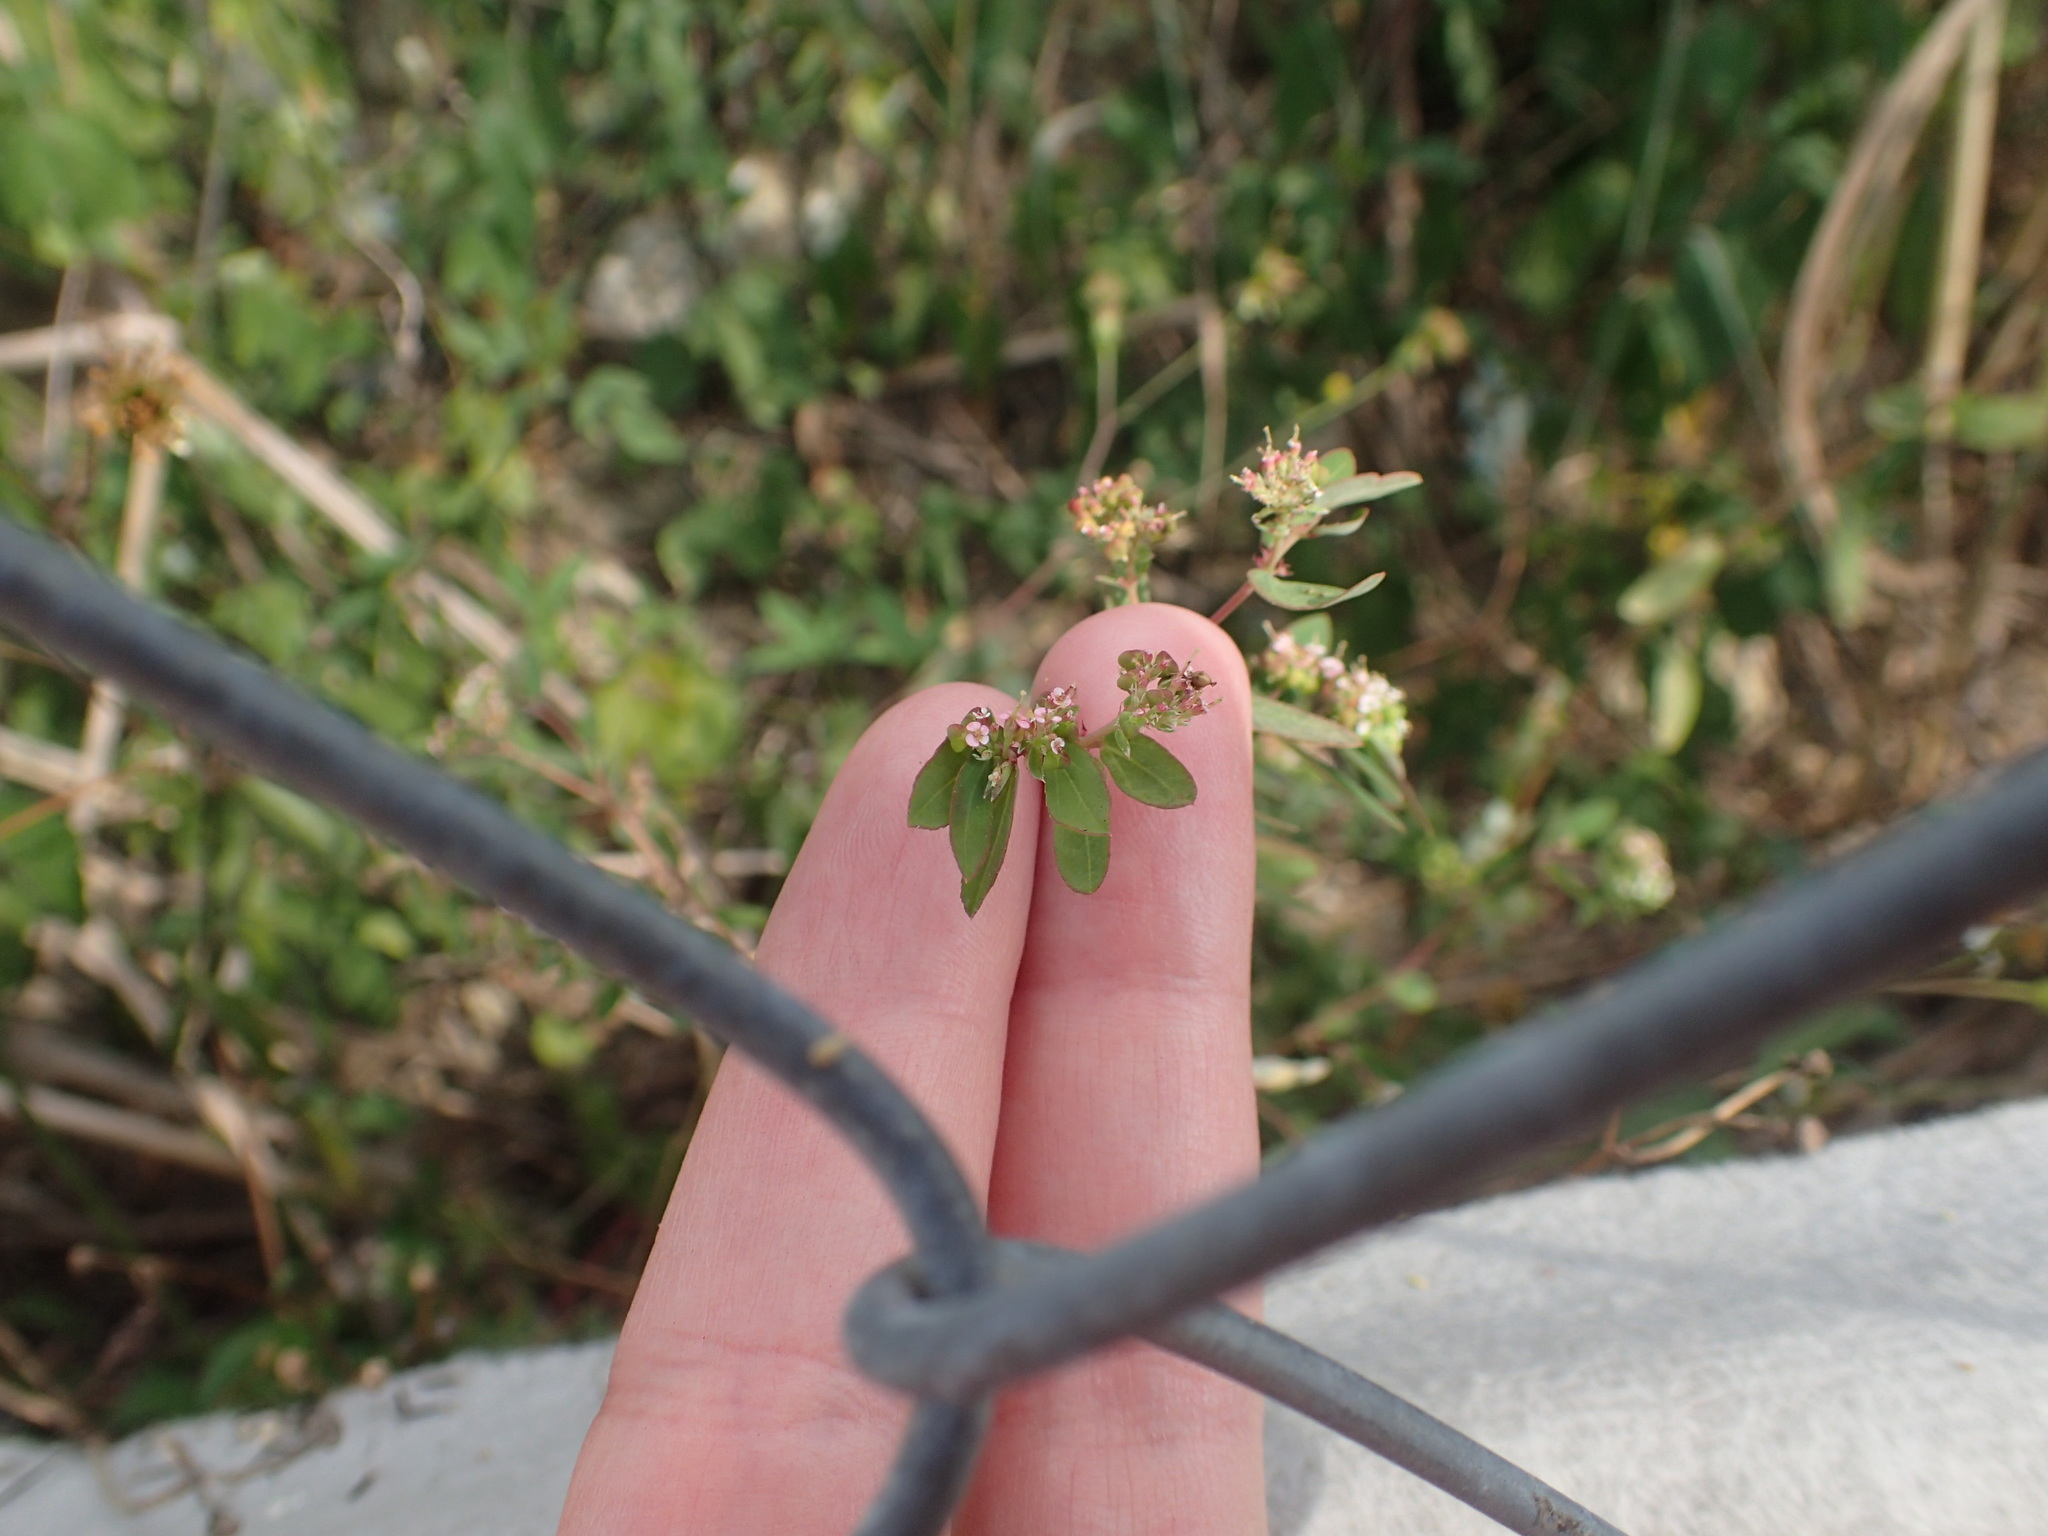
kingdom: Plantae
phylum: Tracheophyta
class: Magnoliopsida
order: Malpighiales
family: Euphorbiaceae
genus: Euphorbia
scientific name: Euphorbia hypericifolia
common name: Graceful sandmat
